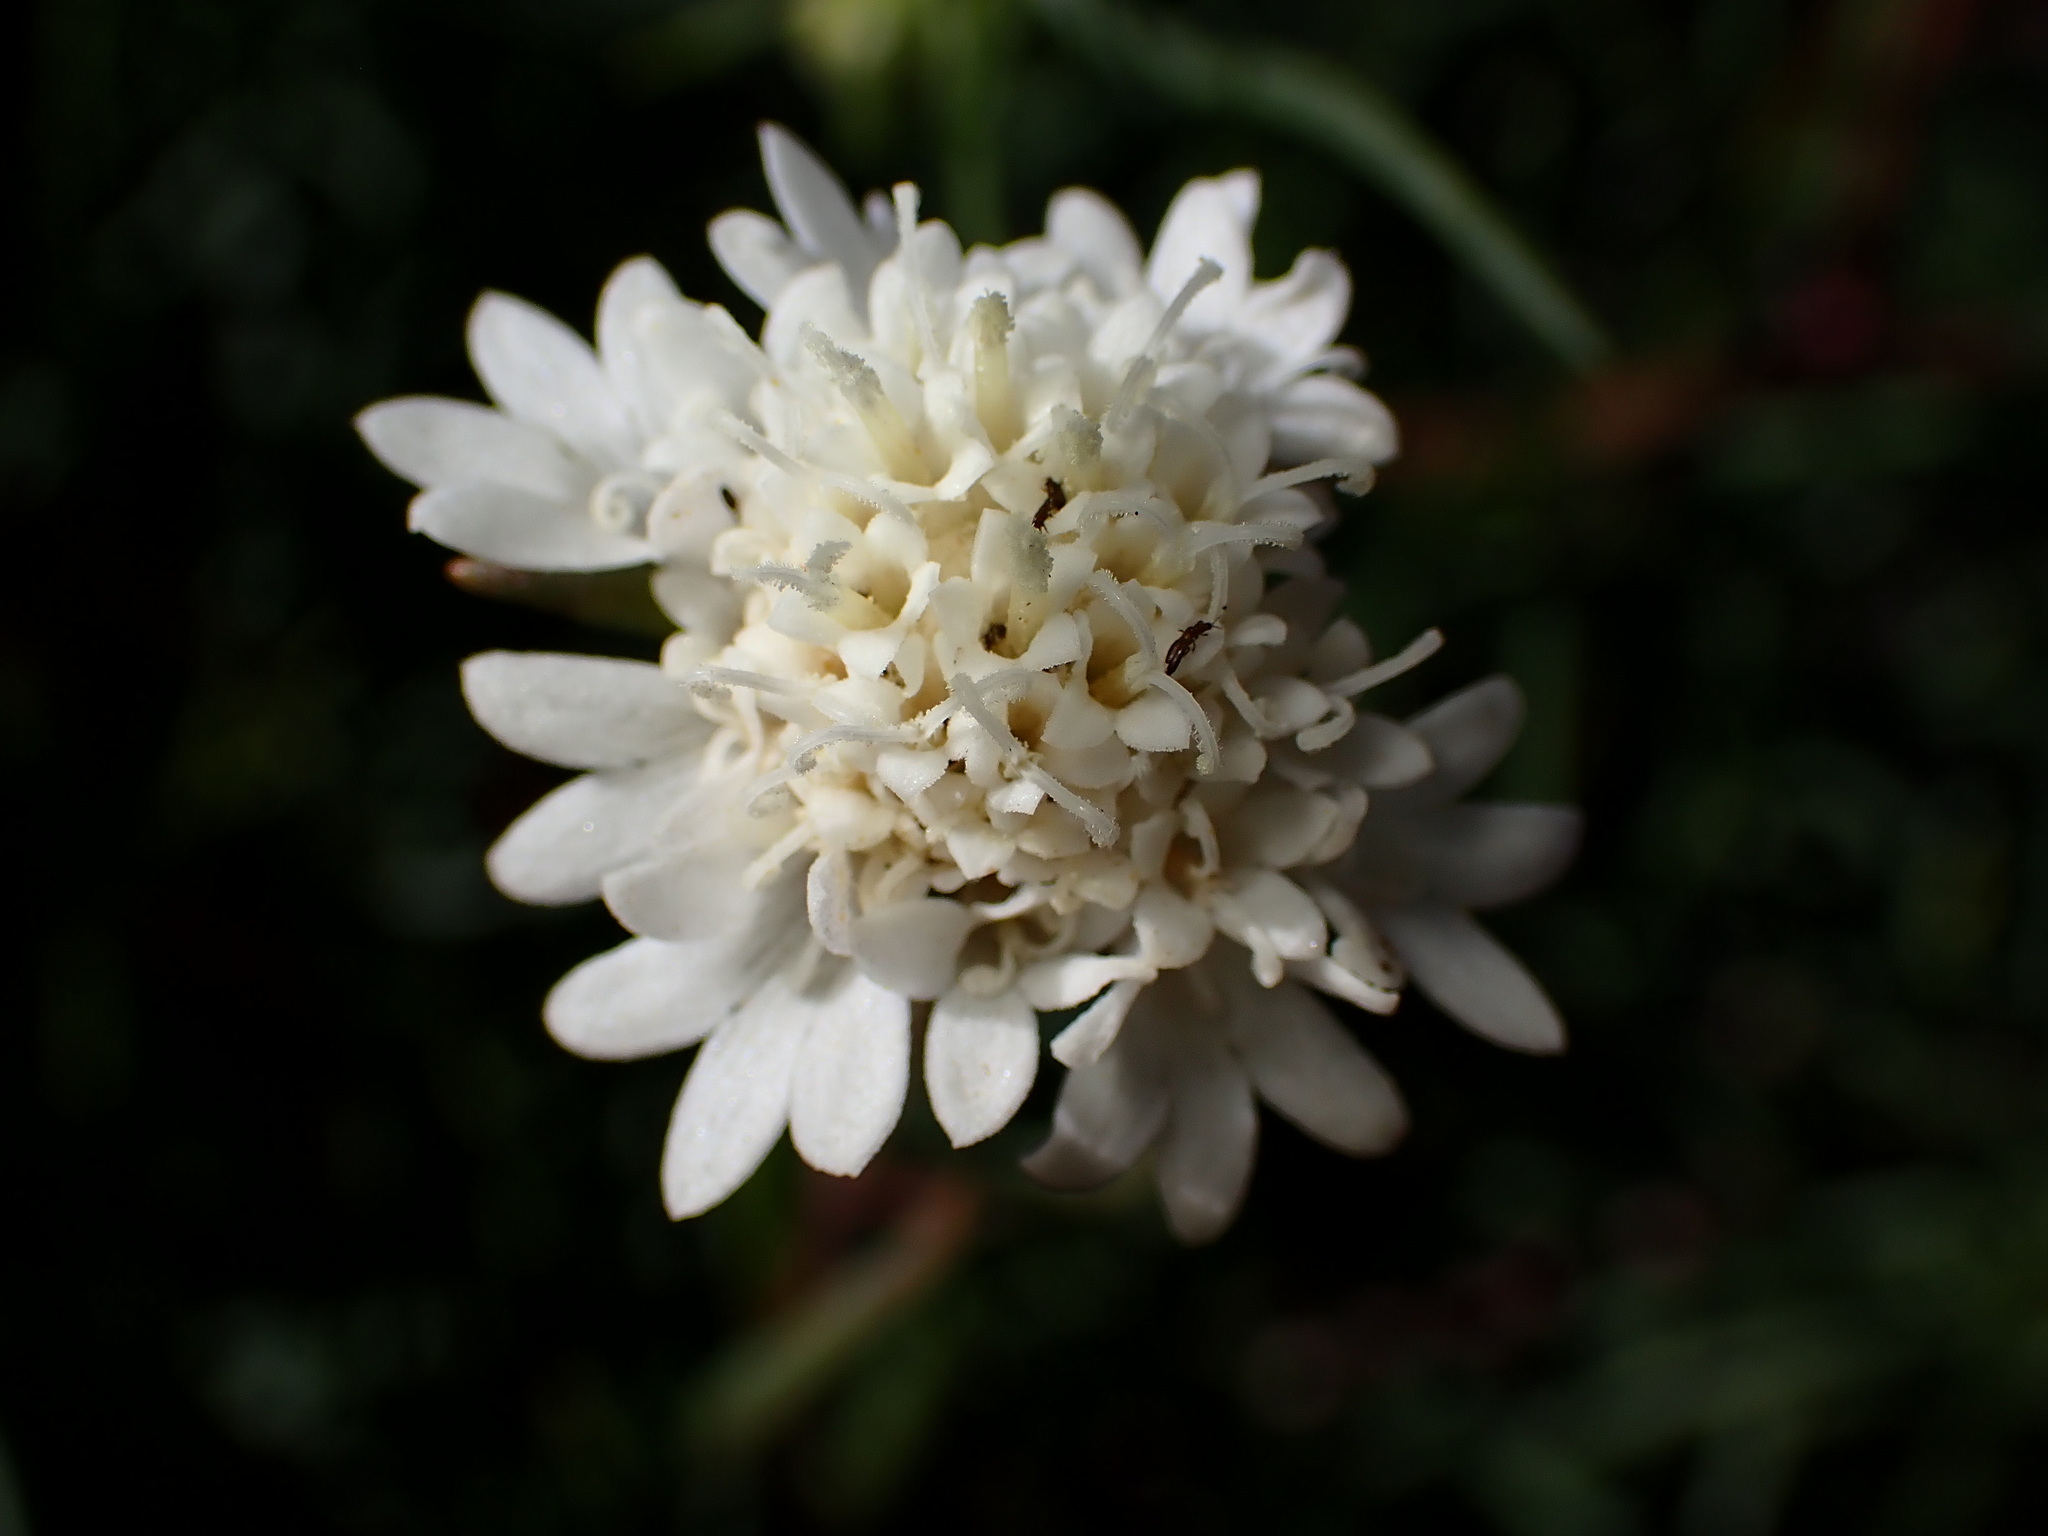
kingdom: Plantae
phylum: Tracheophyta
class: Magnoliopsida
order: Asterales
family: Asteraceae
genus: Chaenactis
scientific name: Chaenactis fremontii
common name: Fremont pincushion
